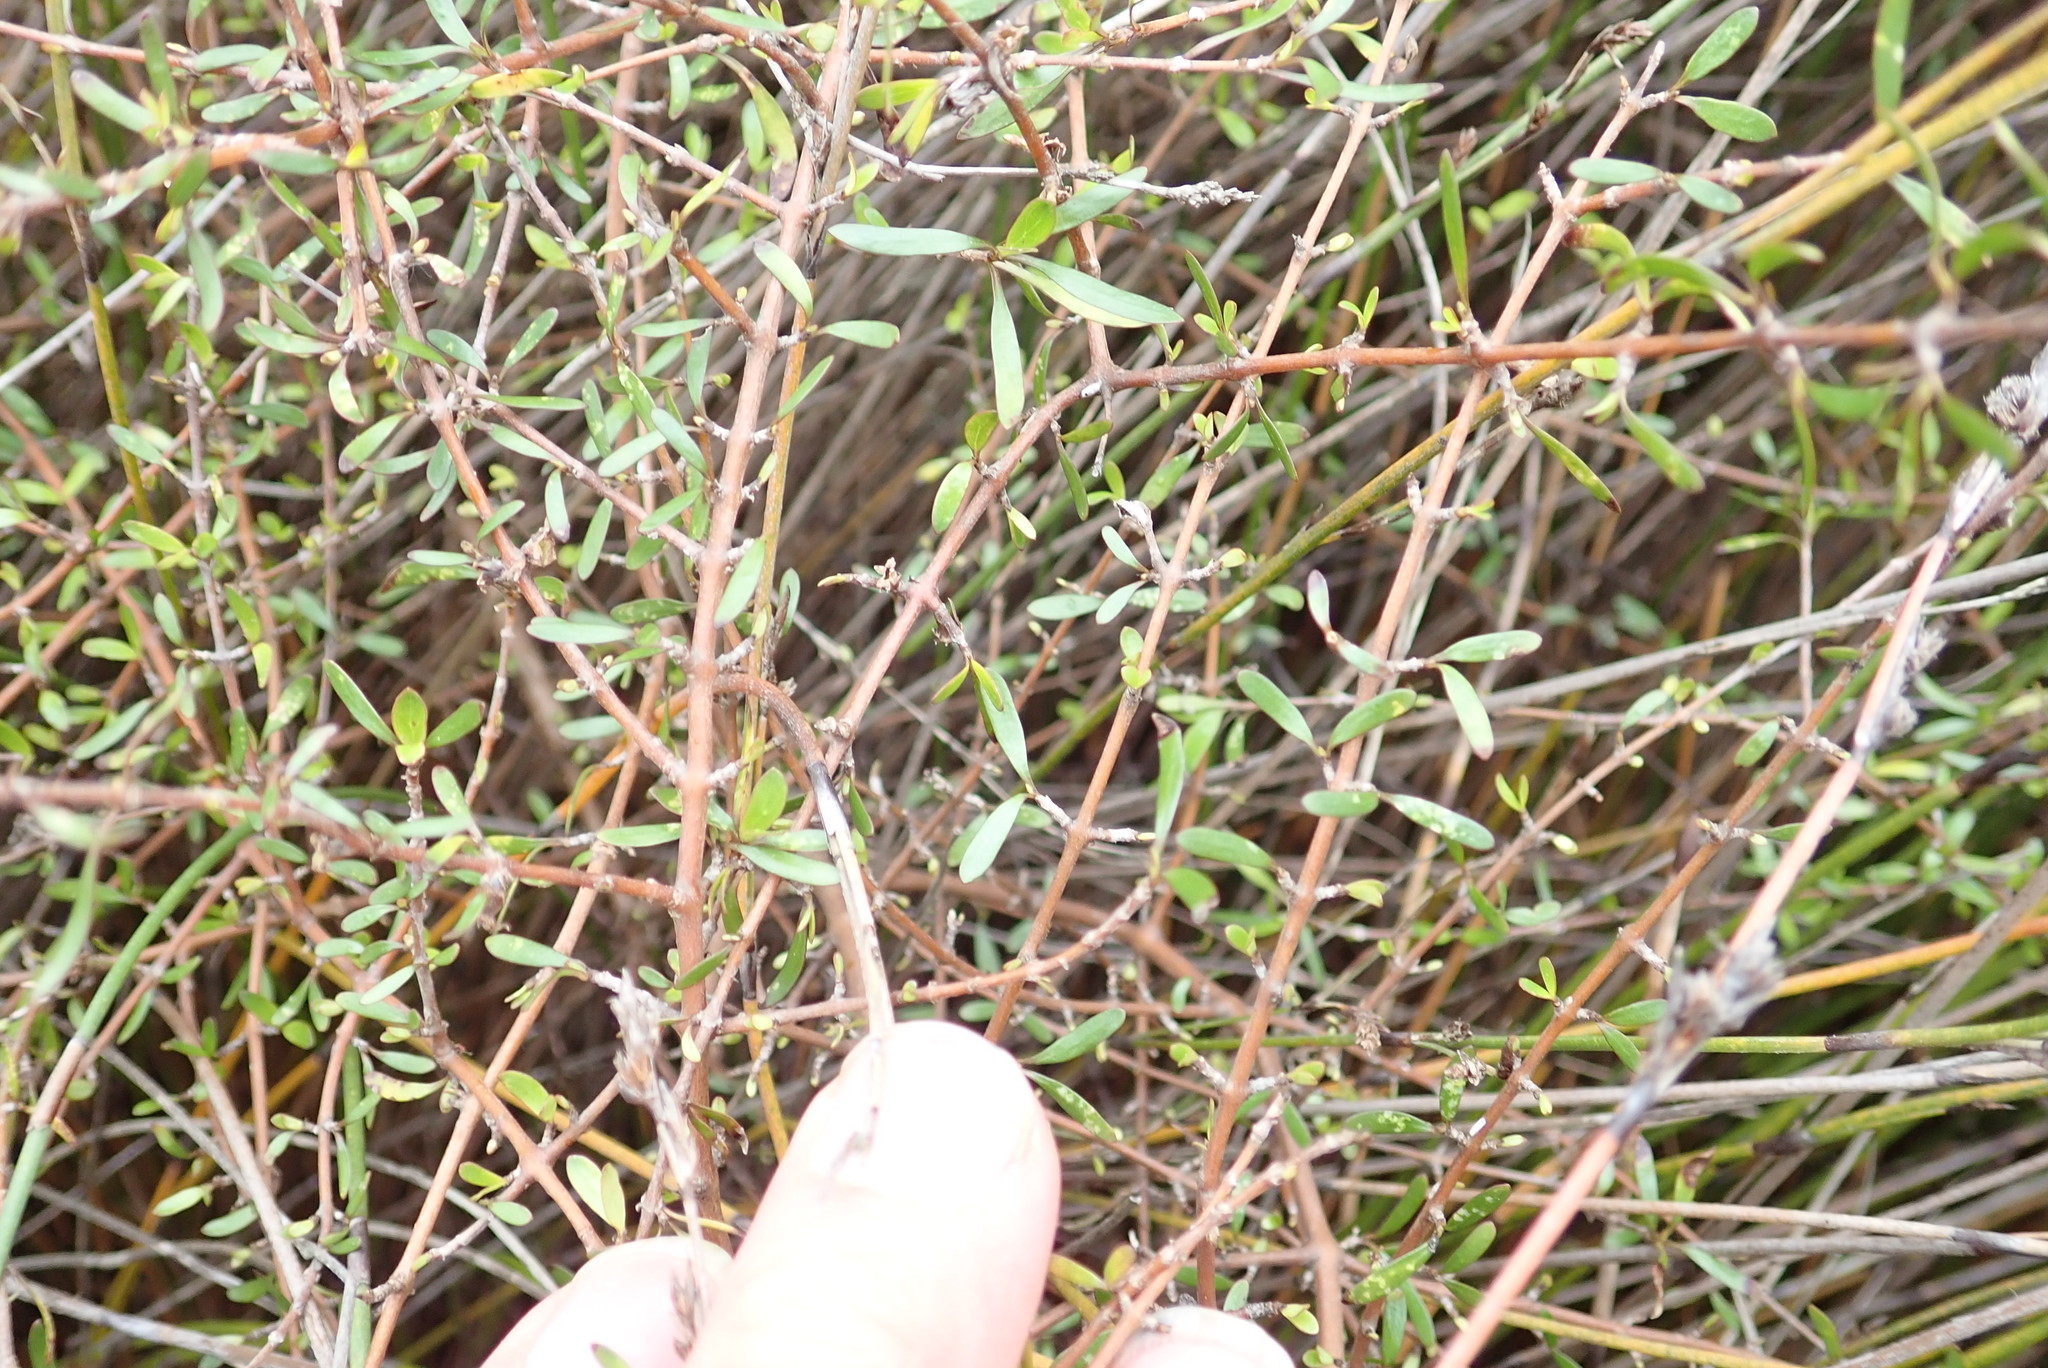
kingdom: Plantae
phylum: Tracheophyta
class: Magnoliopsida
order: Gentianales
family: Rubiaceae
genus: Coprosma
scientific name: Coprosma propinqua
